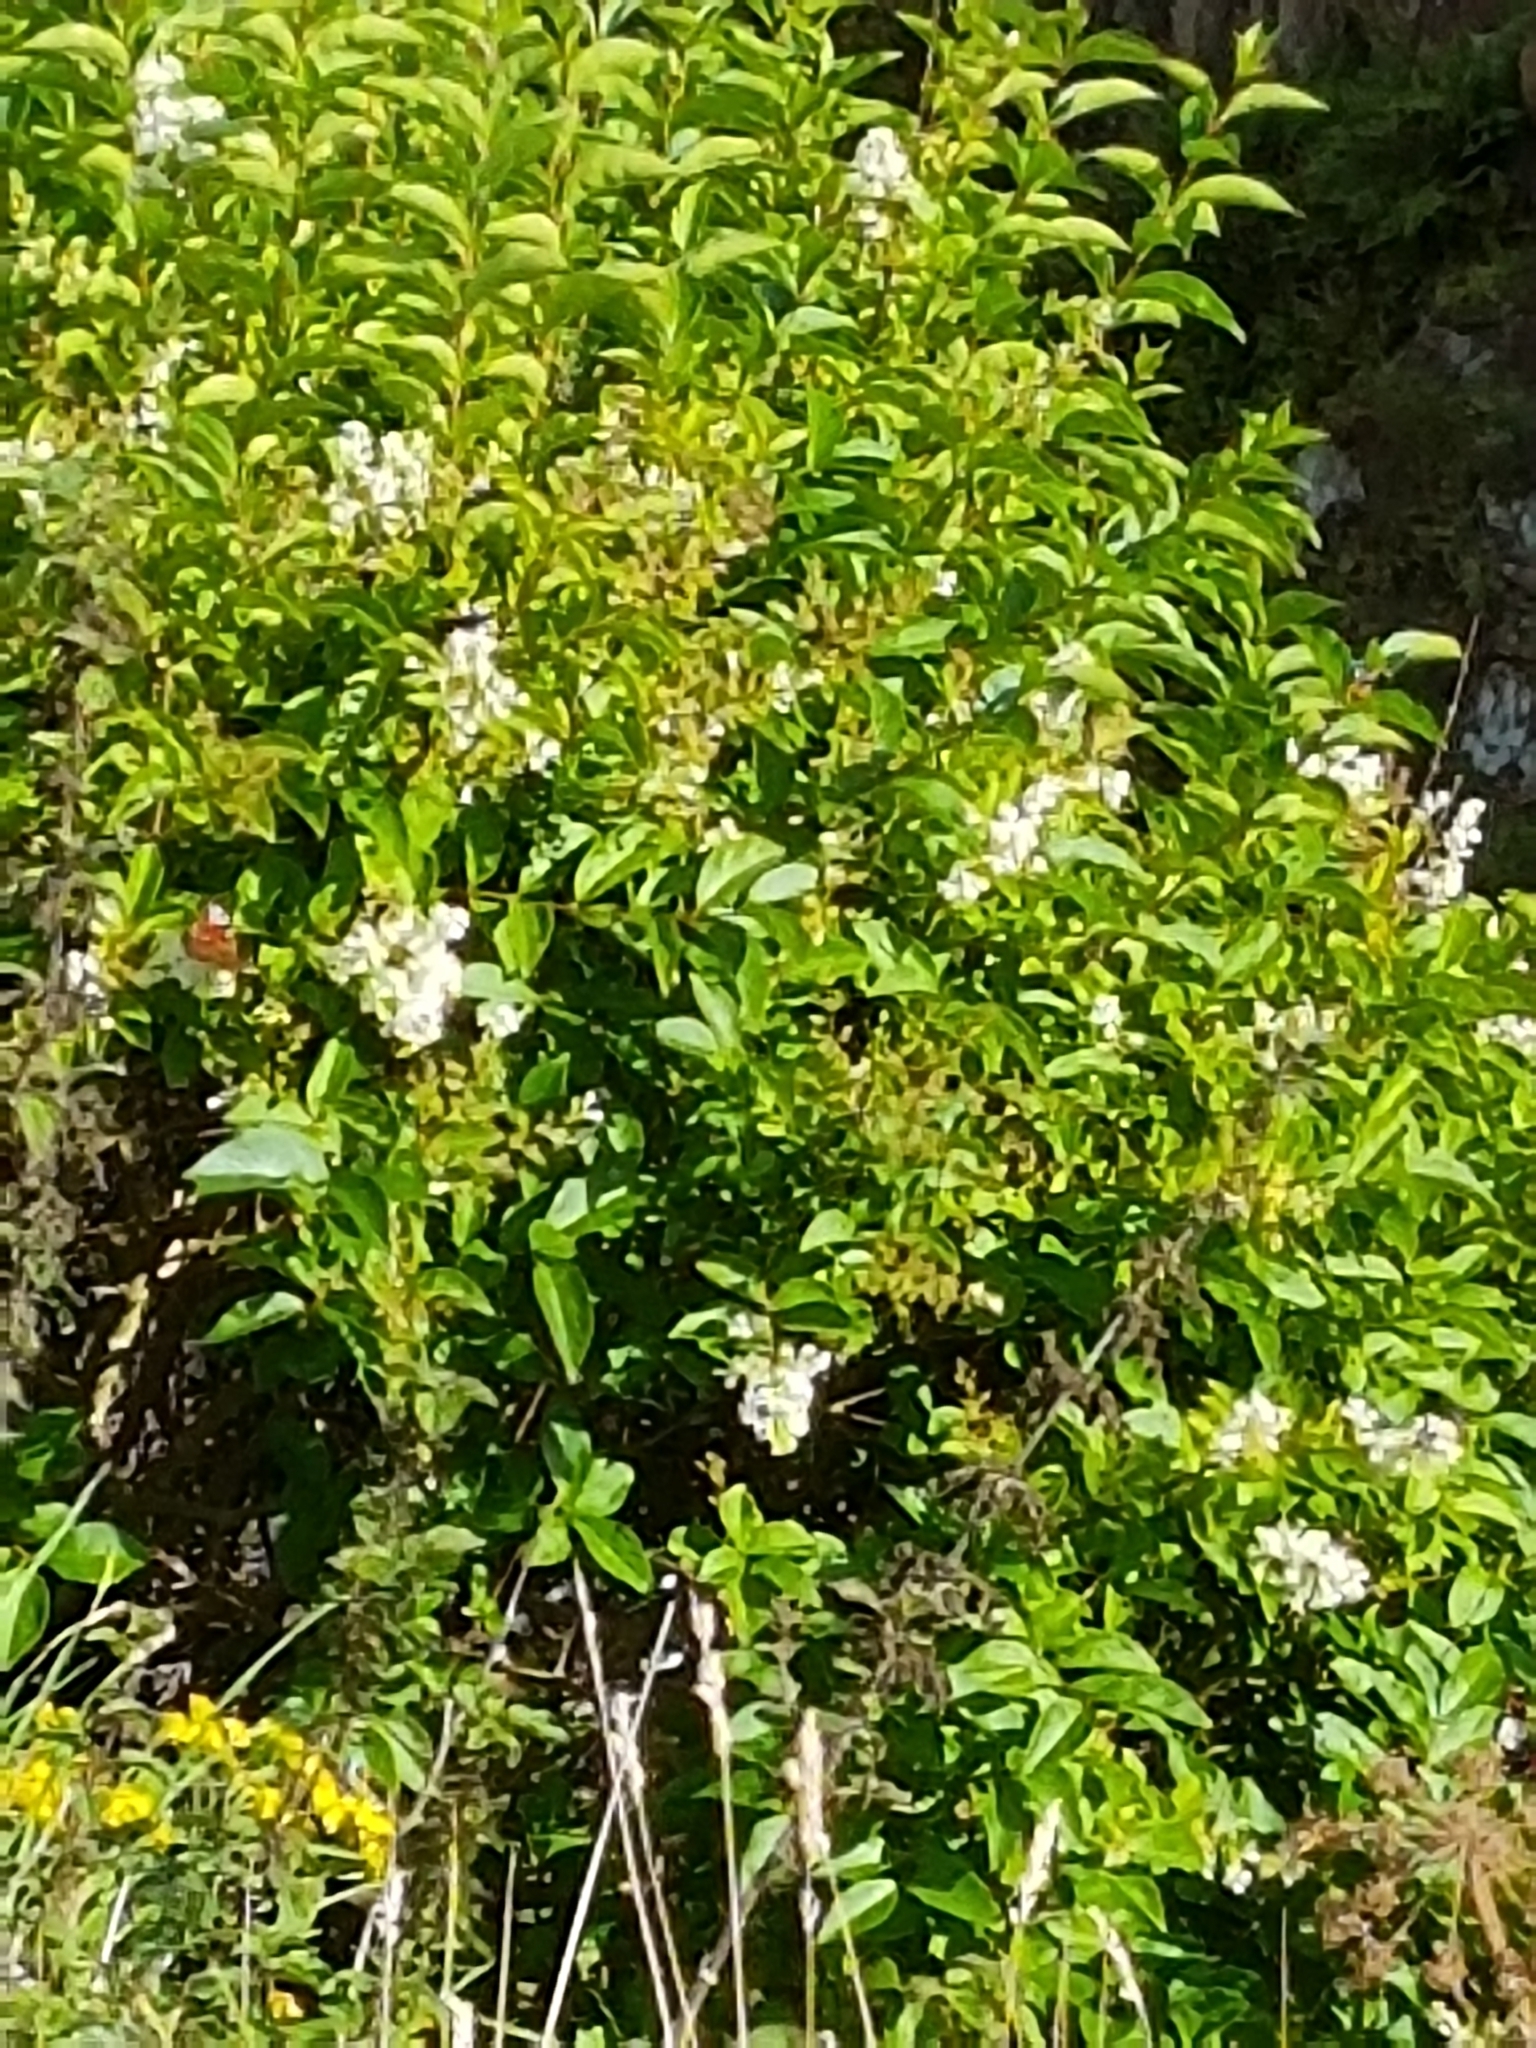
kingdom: Plantae
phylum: Tracheophyta
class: Magnoliopsida
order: Lamiales
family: Oleaceae
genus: Ligustrum
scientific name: Ligustrum ovalifolium
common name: California privet
